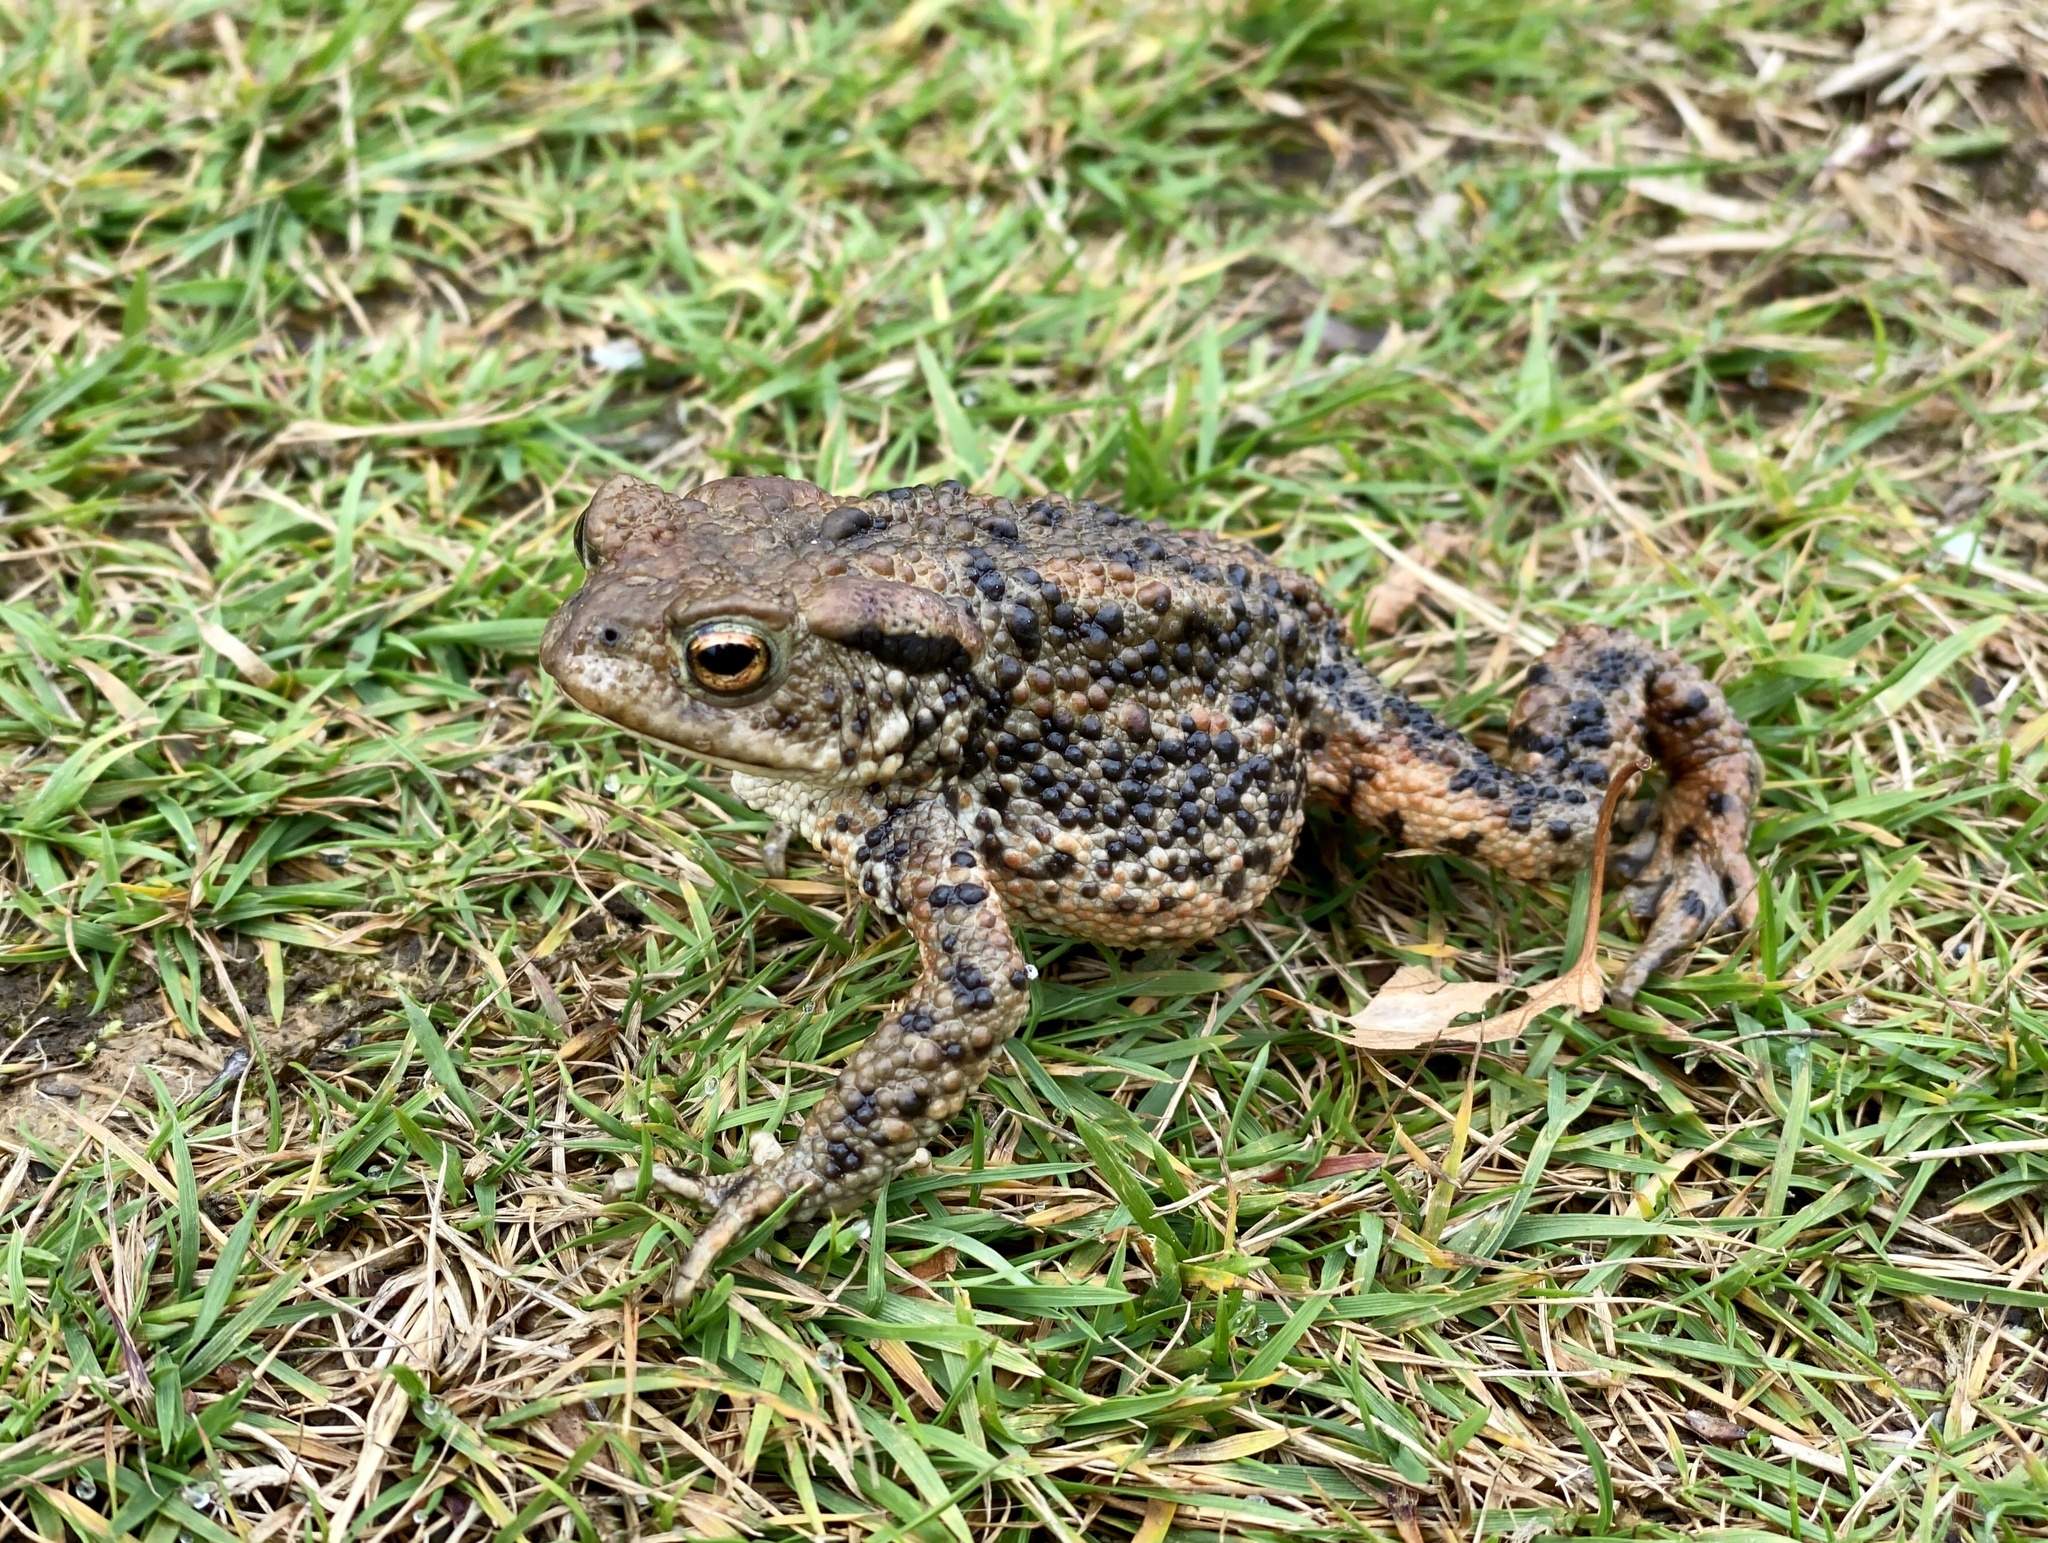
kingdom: Animalia
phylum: Chordata
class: Amphibia
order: Anura
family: Bufonidae
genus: Bufo
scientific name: Bufo bufo
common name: Common toad
